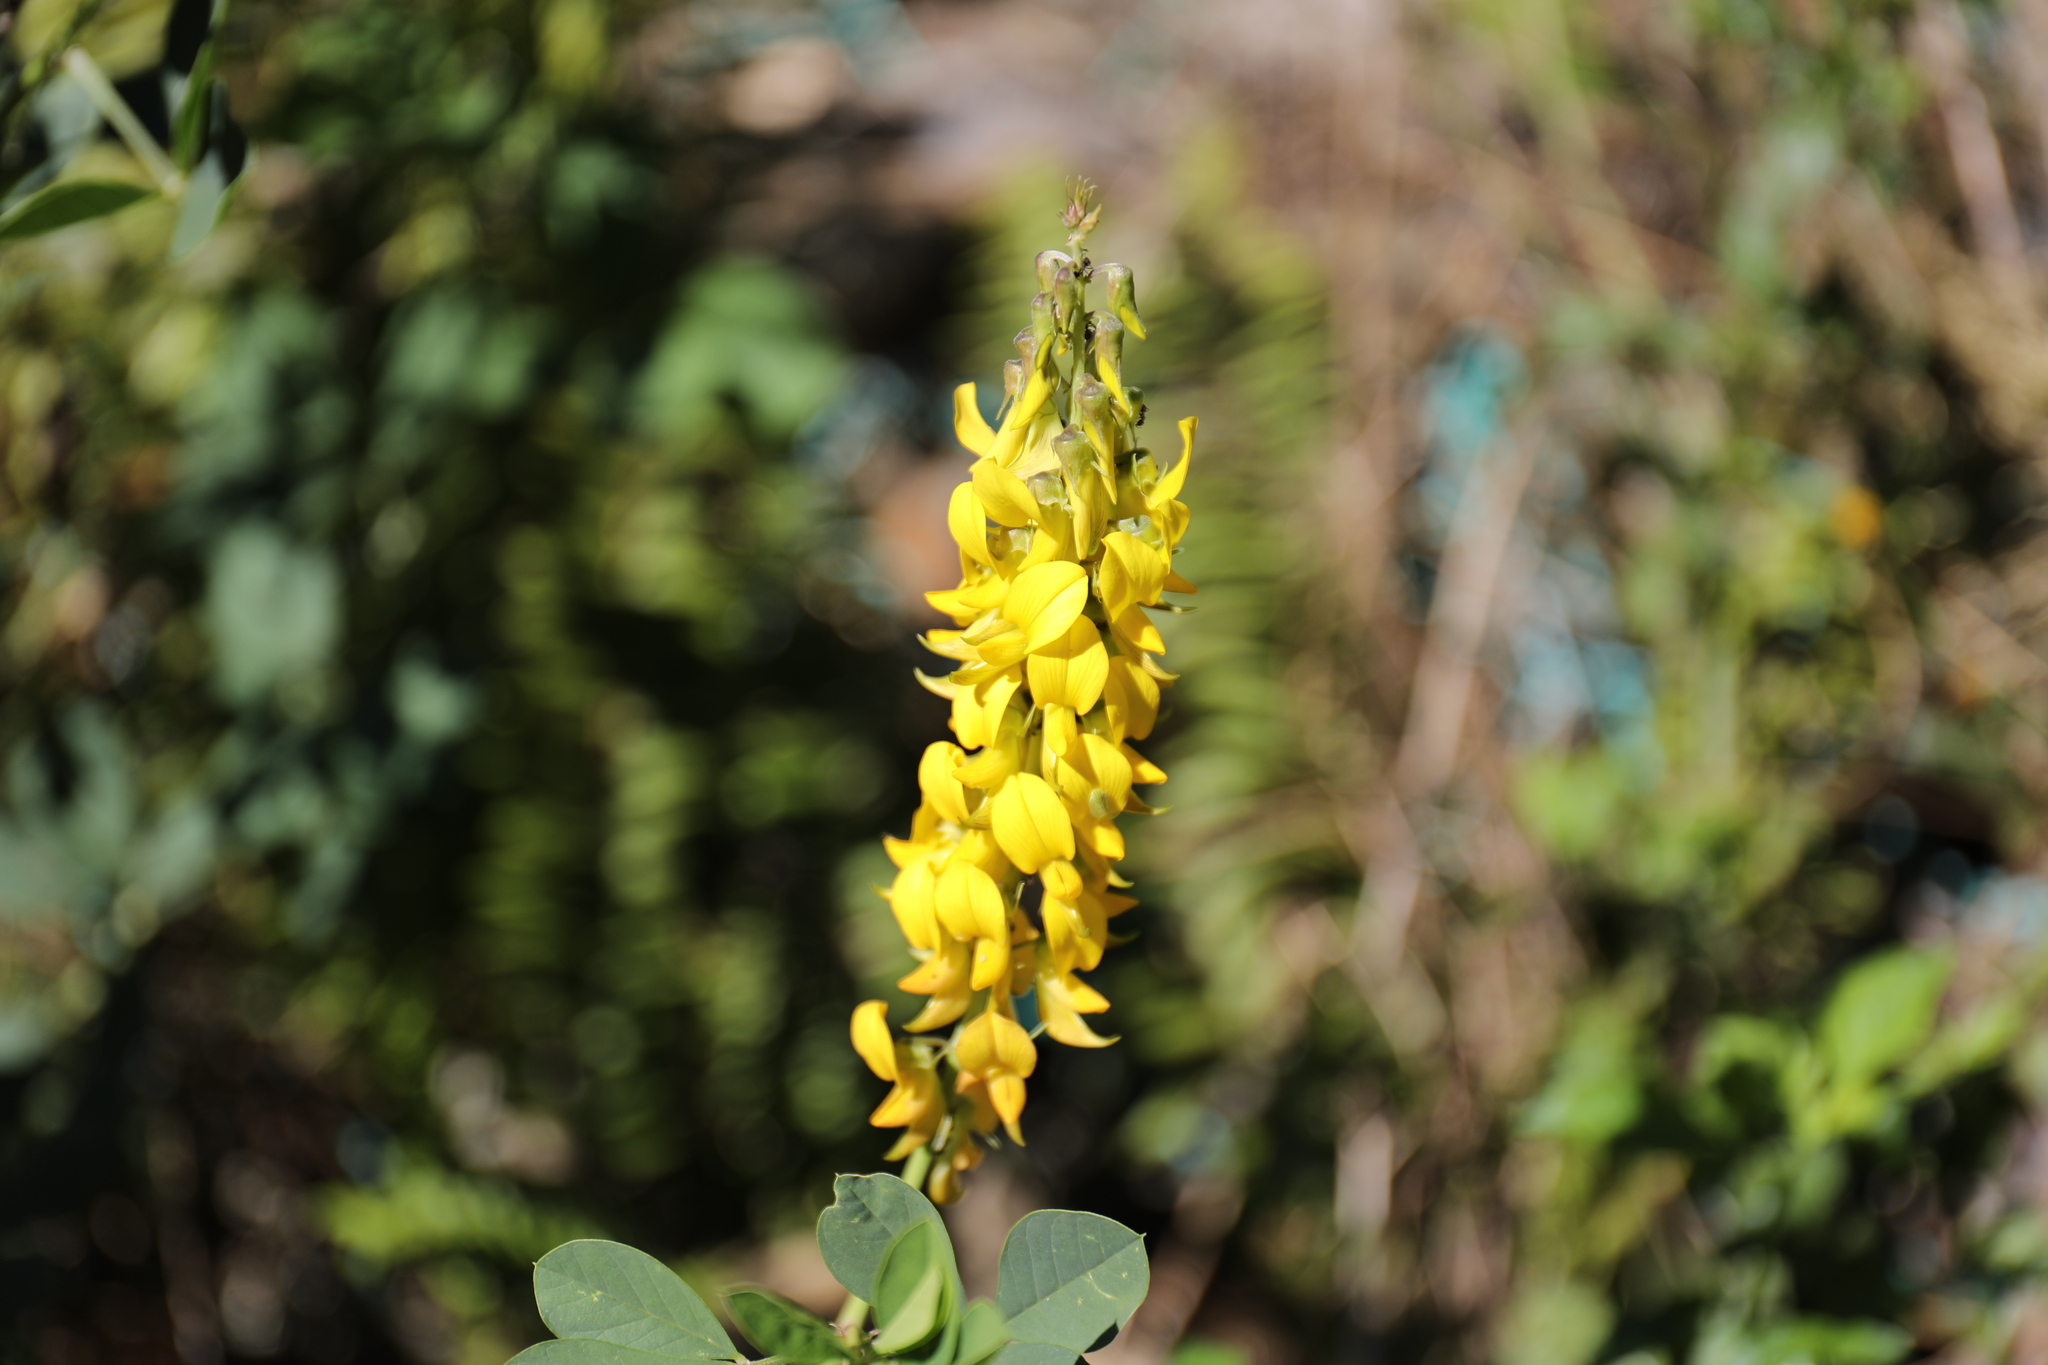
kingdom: Plantae
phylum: Tracheophyta
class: Magnoliopsida
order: Fabales
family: Fabaceae
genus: Crotalaria
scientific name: Crotalaria pallida
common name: Smooth rattlebox
